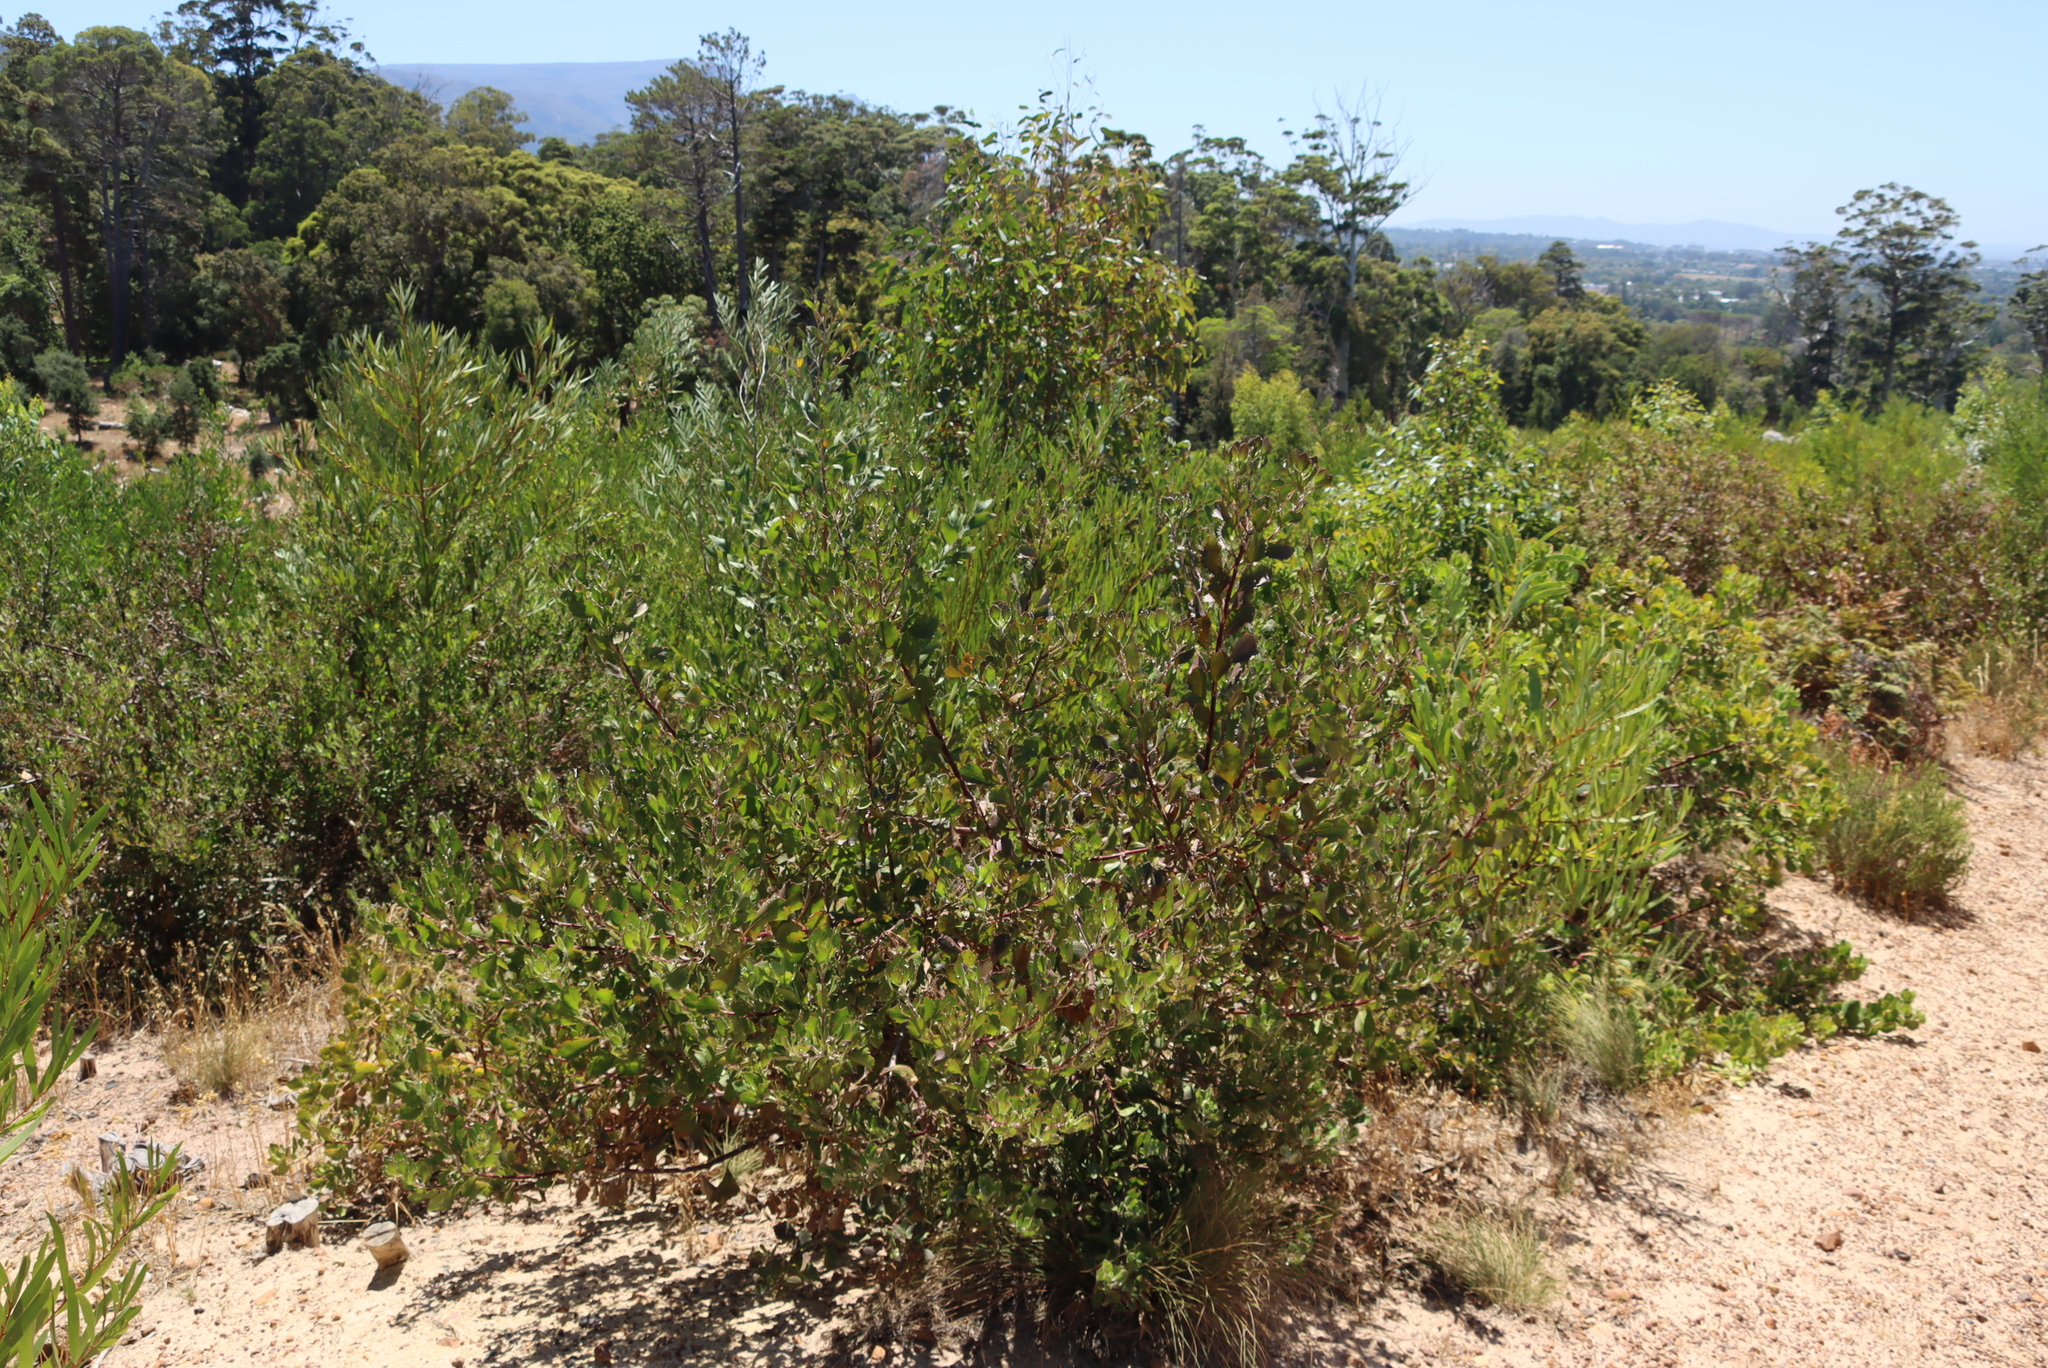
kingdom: Plantae
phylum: Tracheophyta
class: Magnoliopsida
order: Asterales
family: Asteraceae
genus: Osteospermum
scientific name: Osteospermum moniliferum
